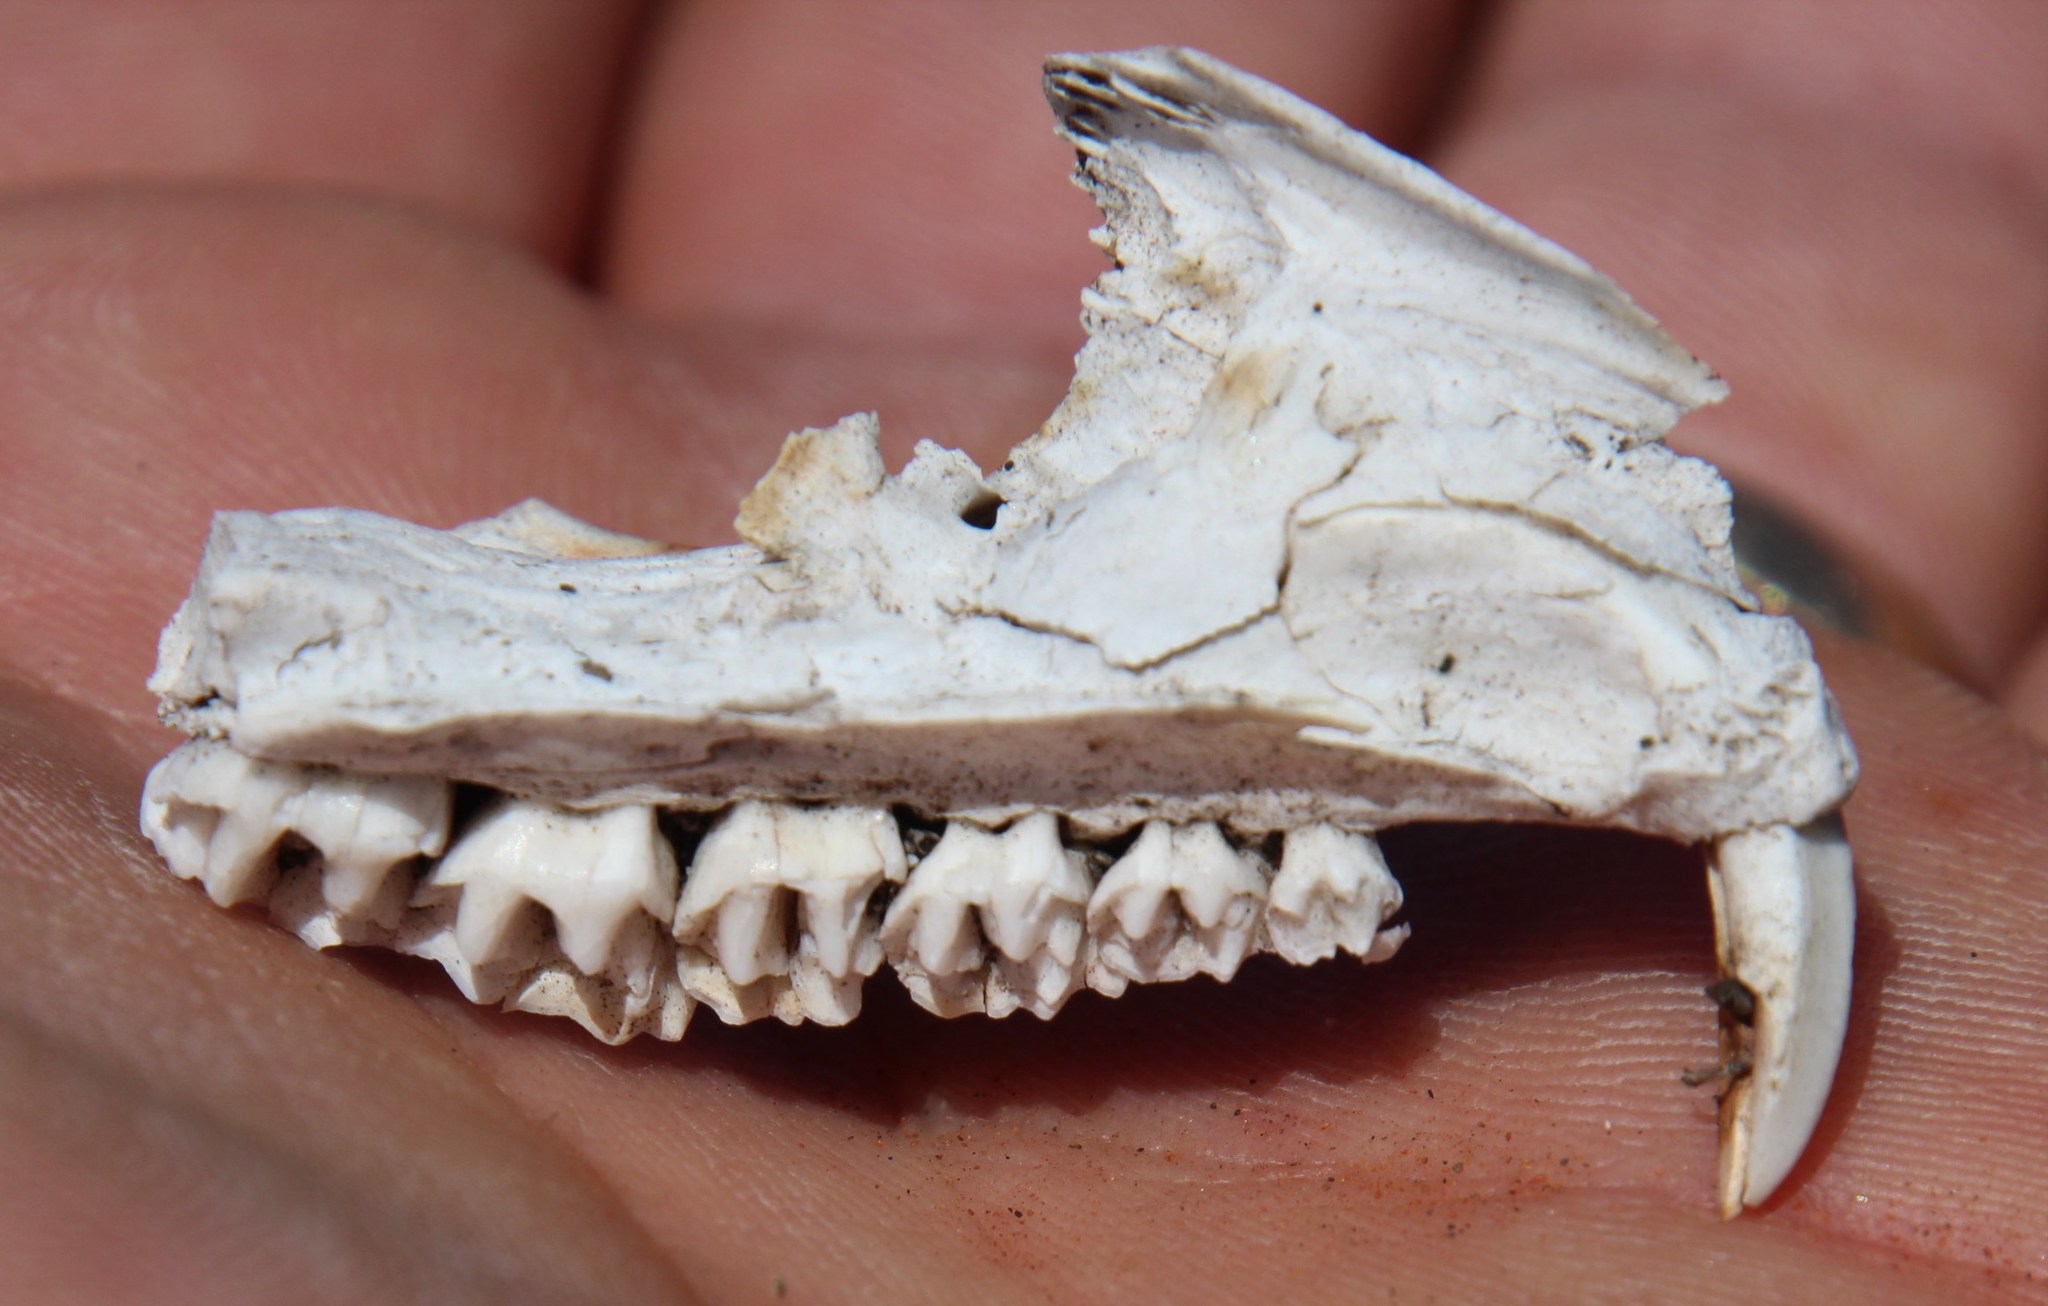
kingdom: Animalia
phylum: Chordata
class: Mammalia
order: Hyracoidea
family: Procaviidae
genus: Procavia
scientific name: Procavia capensis
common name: Rock hyrax
